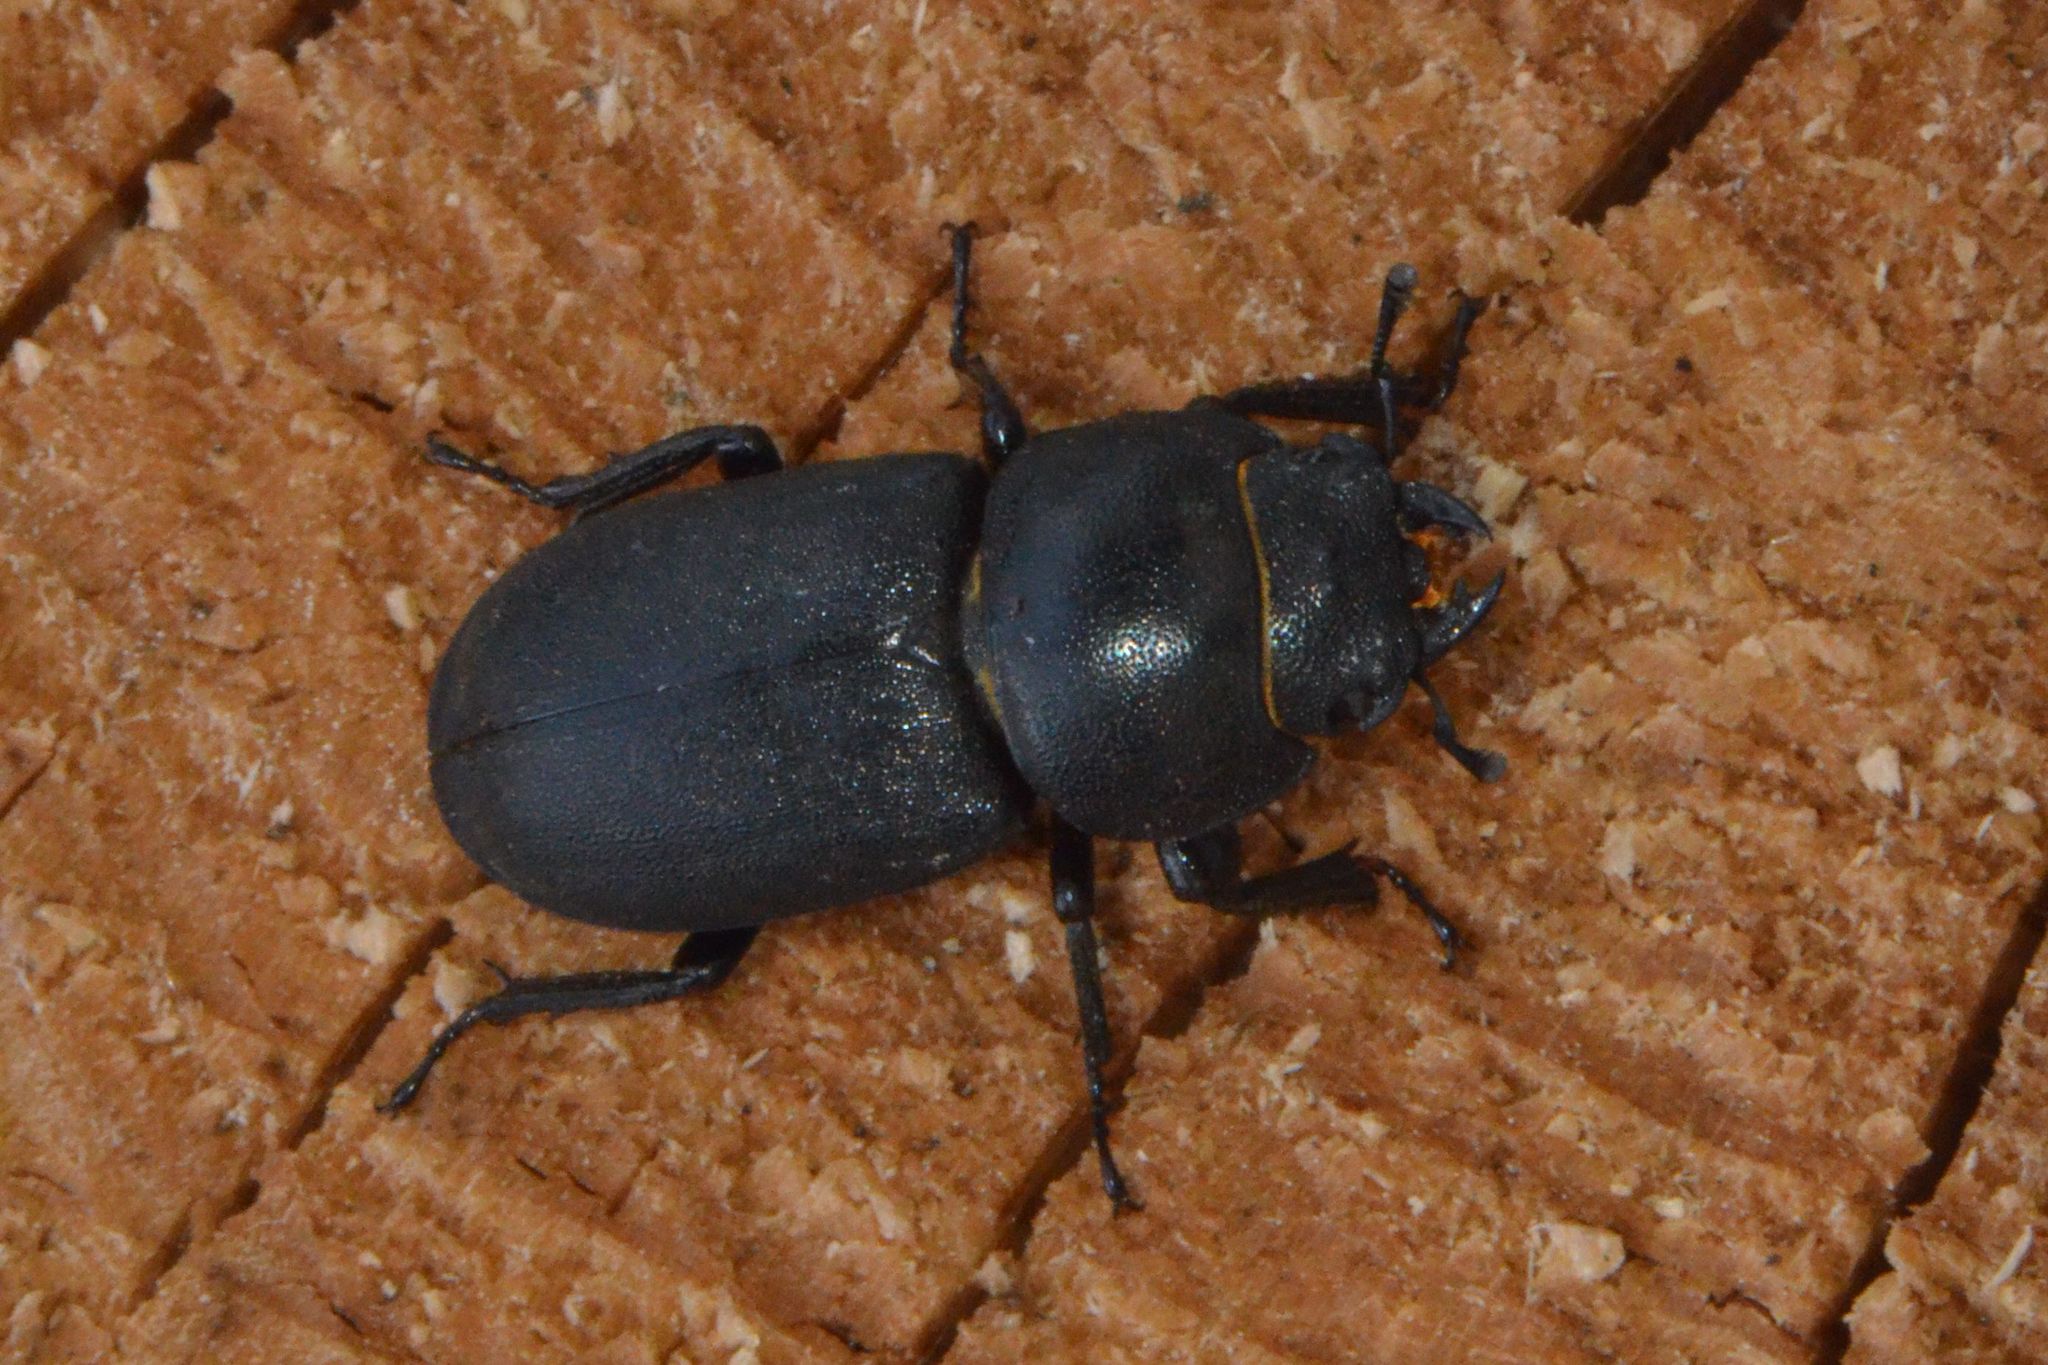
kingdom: Animalia
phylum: Arthropoda
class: Insecta
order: Coleoptera
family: Lucanidae
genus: Dorcus
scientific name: Dorcus parallelipipedus
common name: Lesser stag beetle
